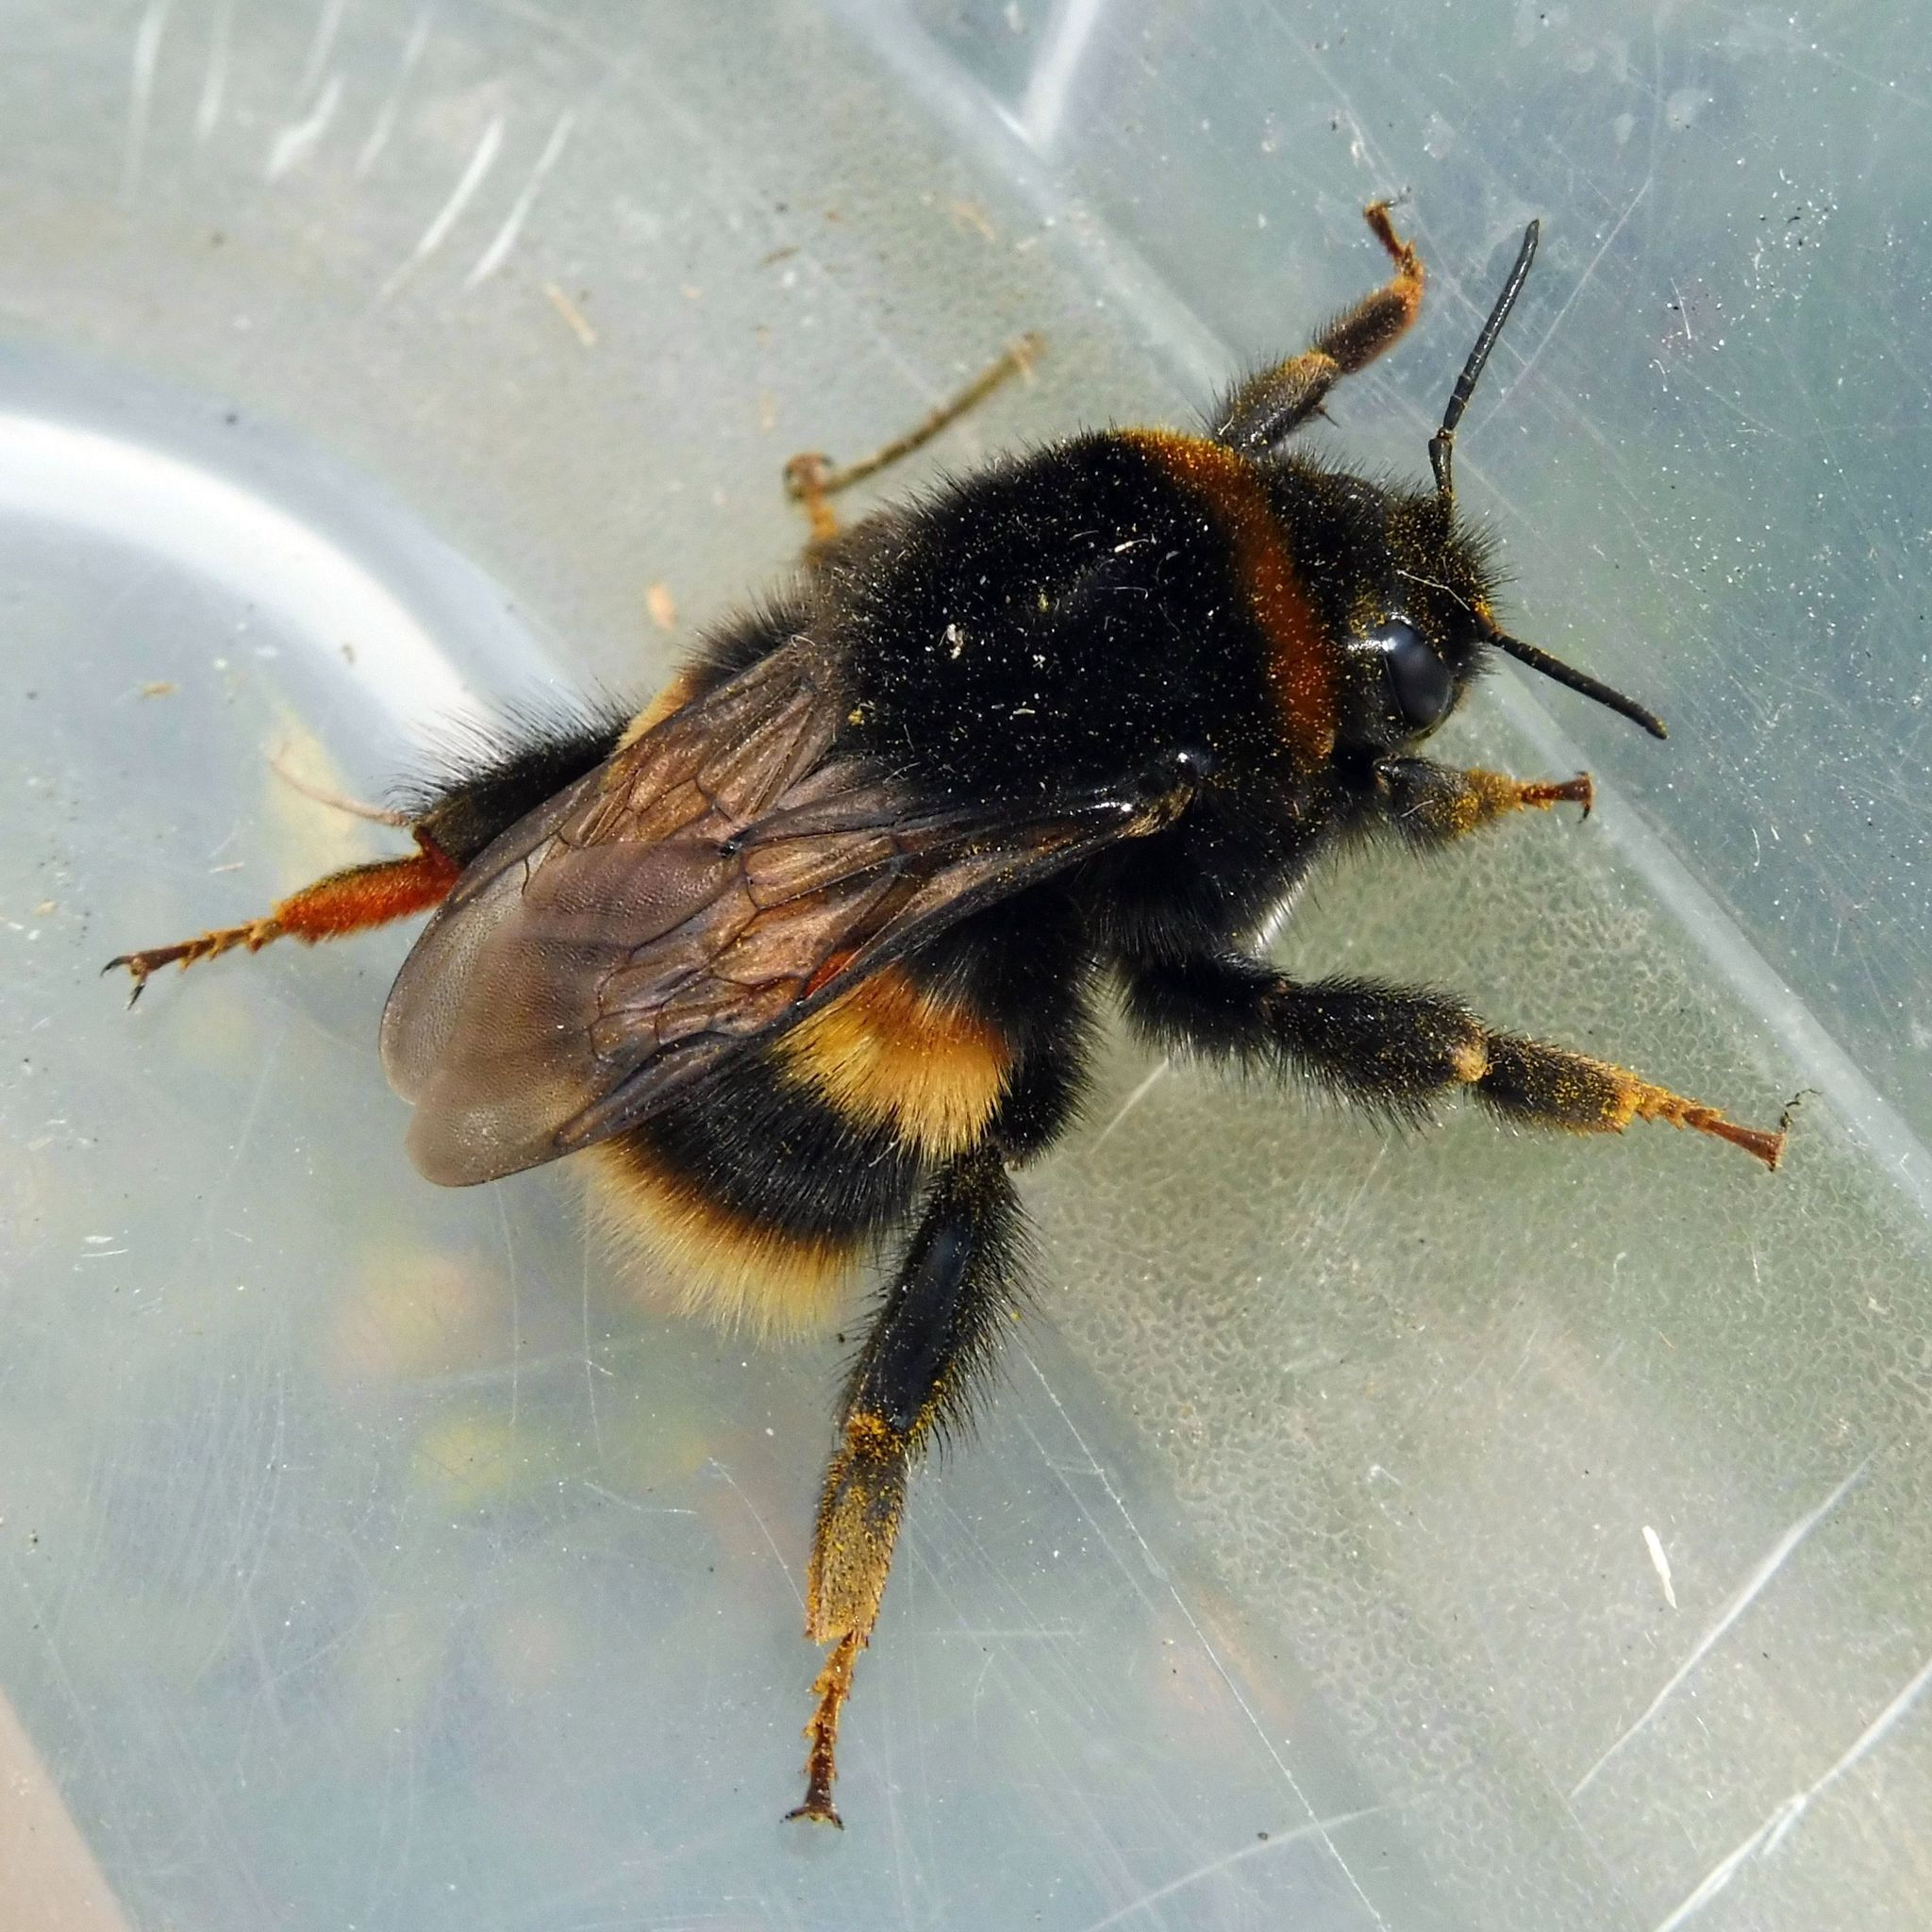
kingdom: Animalia
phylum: Arthropoda
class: Insecta
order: Hymenoptera
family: Apidae
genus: Bombus
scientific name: Bombus terrestris
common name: Buff-tailed bumblebee
